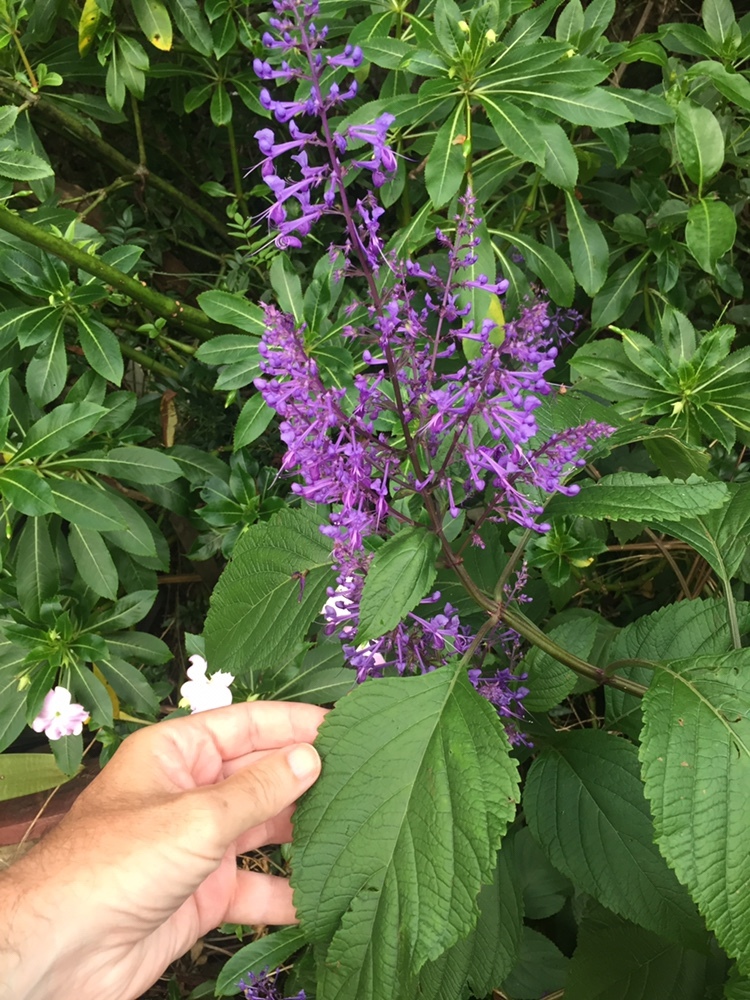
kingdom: Plantae
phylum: Tracheophyta
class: Magnoliopsida
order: Lamiales
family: Lamiaceae
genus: Plectranthus
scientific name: Plectranthus ecklonii
